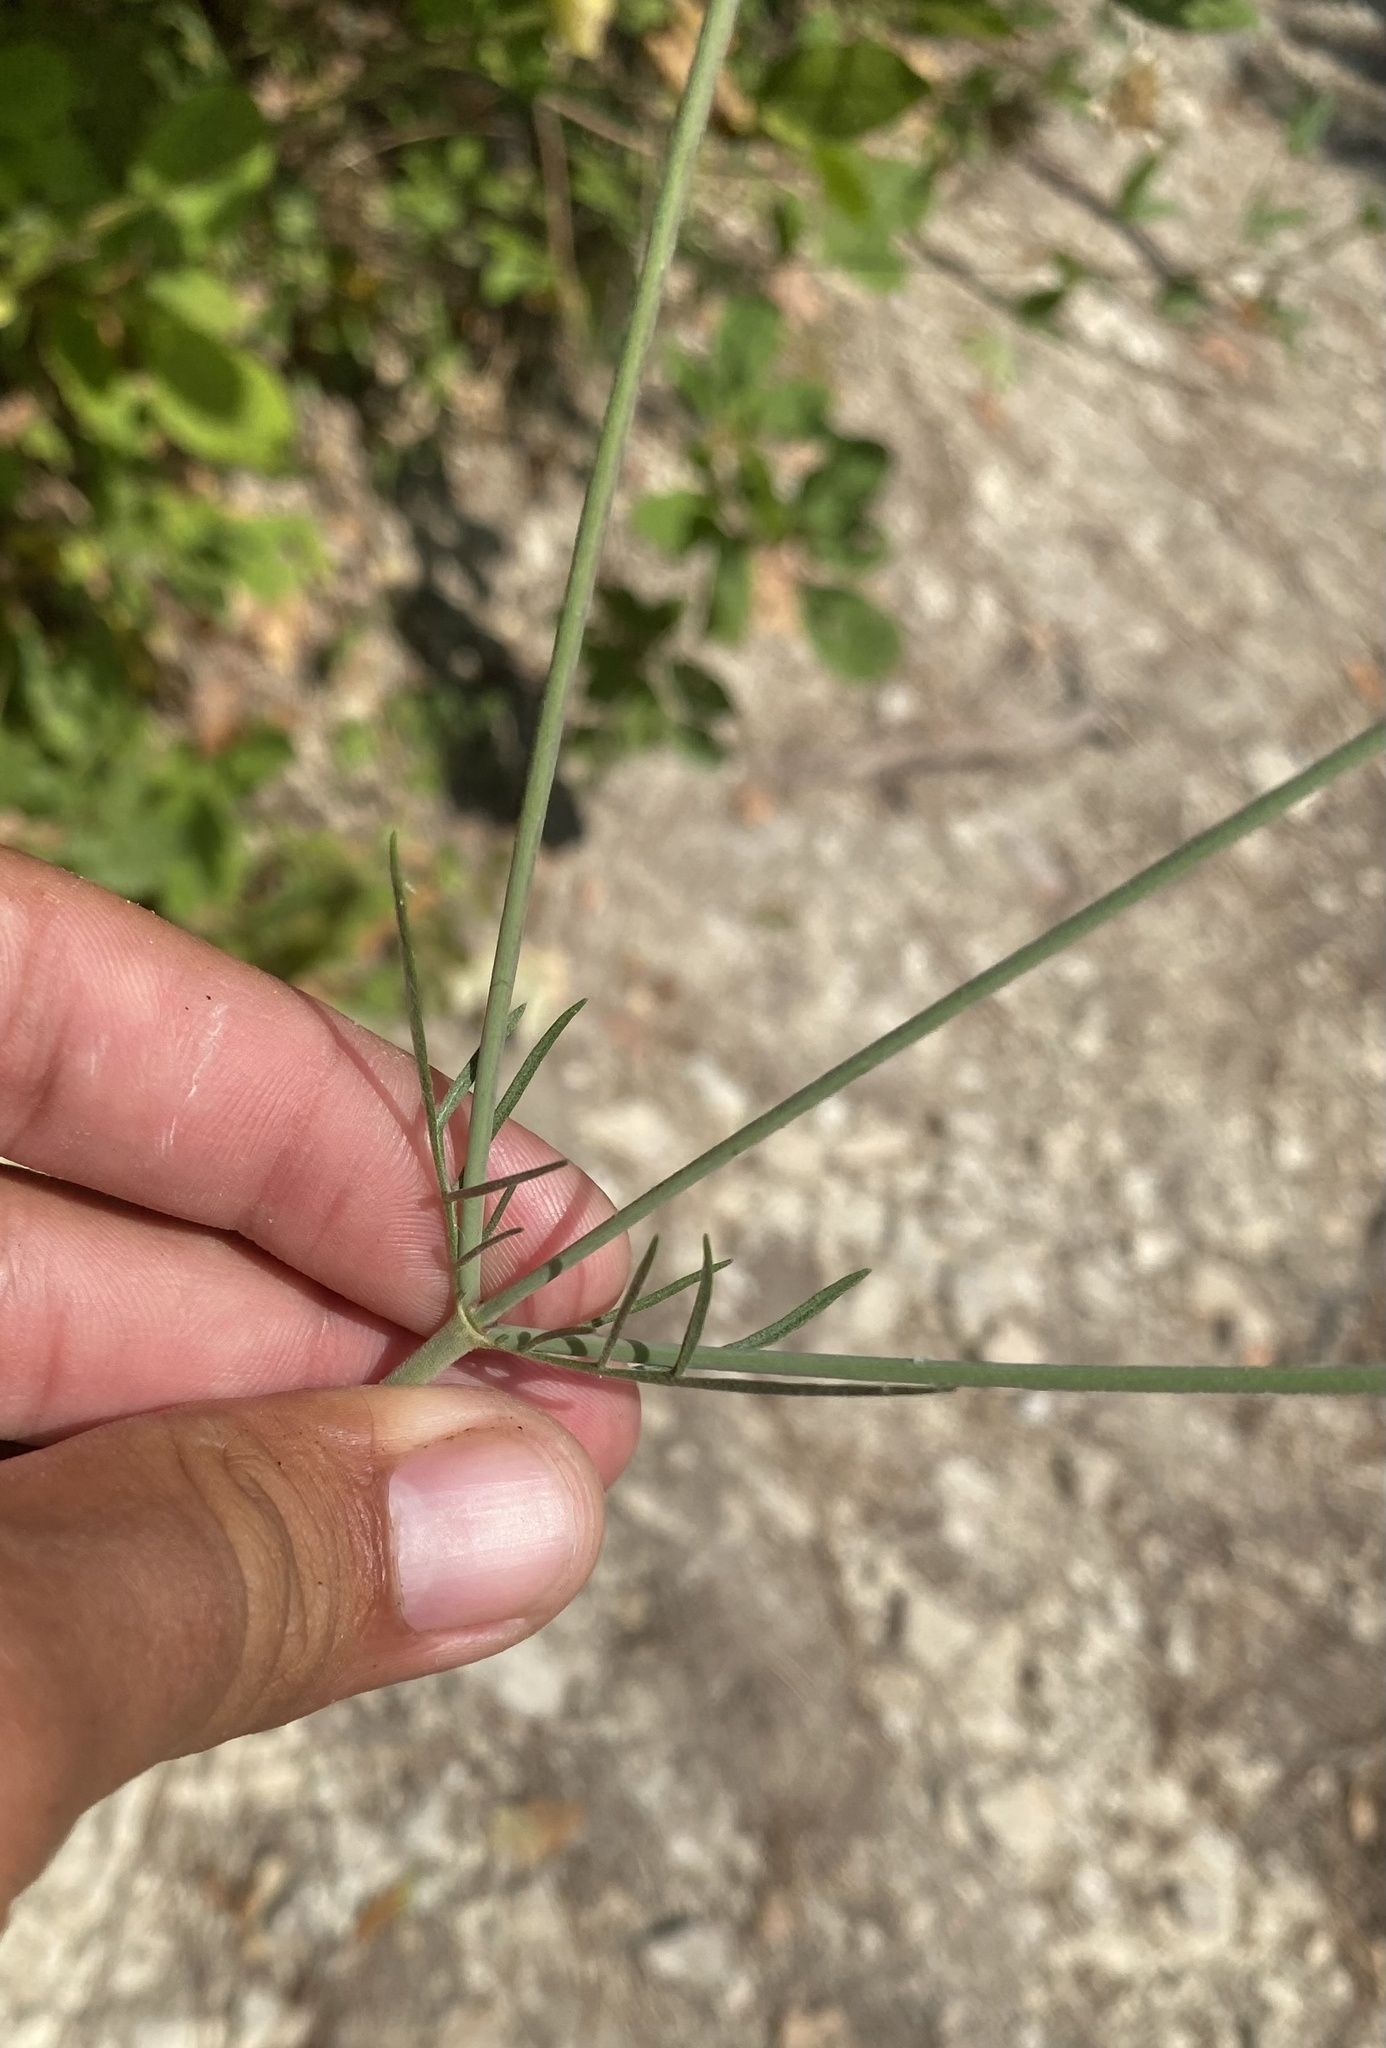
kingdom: Plantae
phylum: Tracheophyta
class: Magnoliopsida
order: Dipsacales
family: Caprifoliaceae
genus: Scabiosa
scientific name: Scabiosa ochroleuca
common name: Cream pincushions
